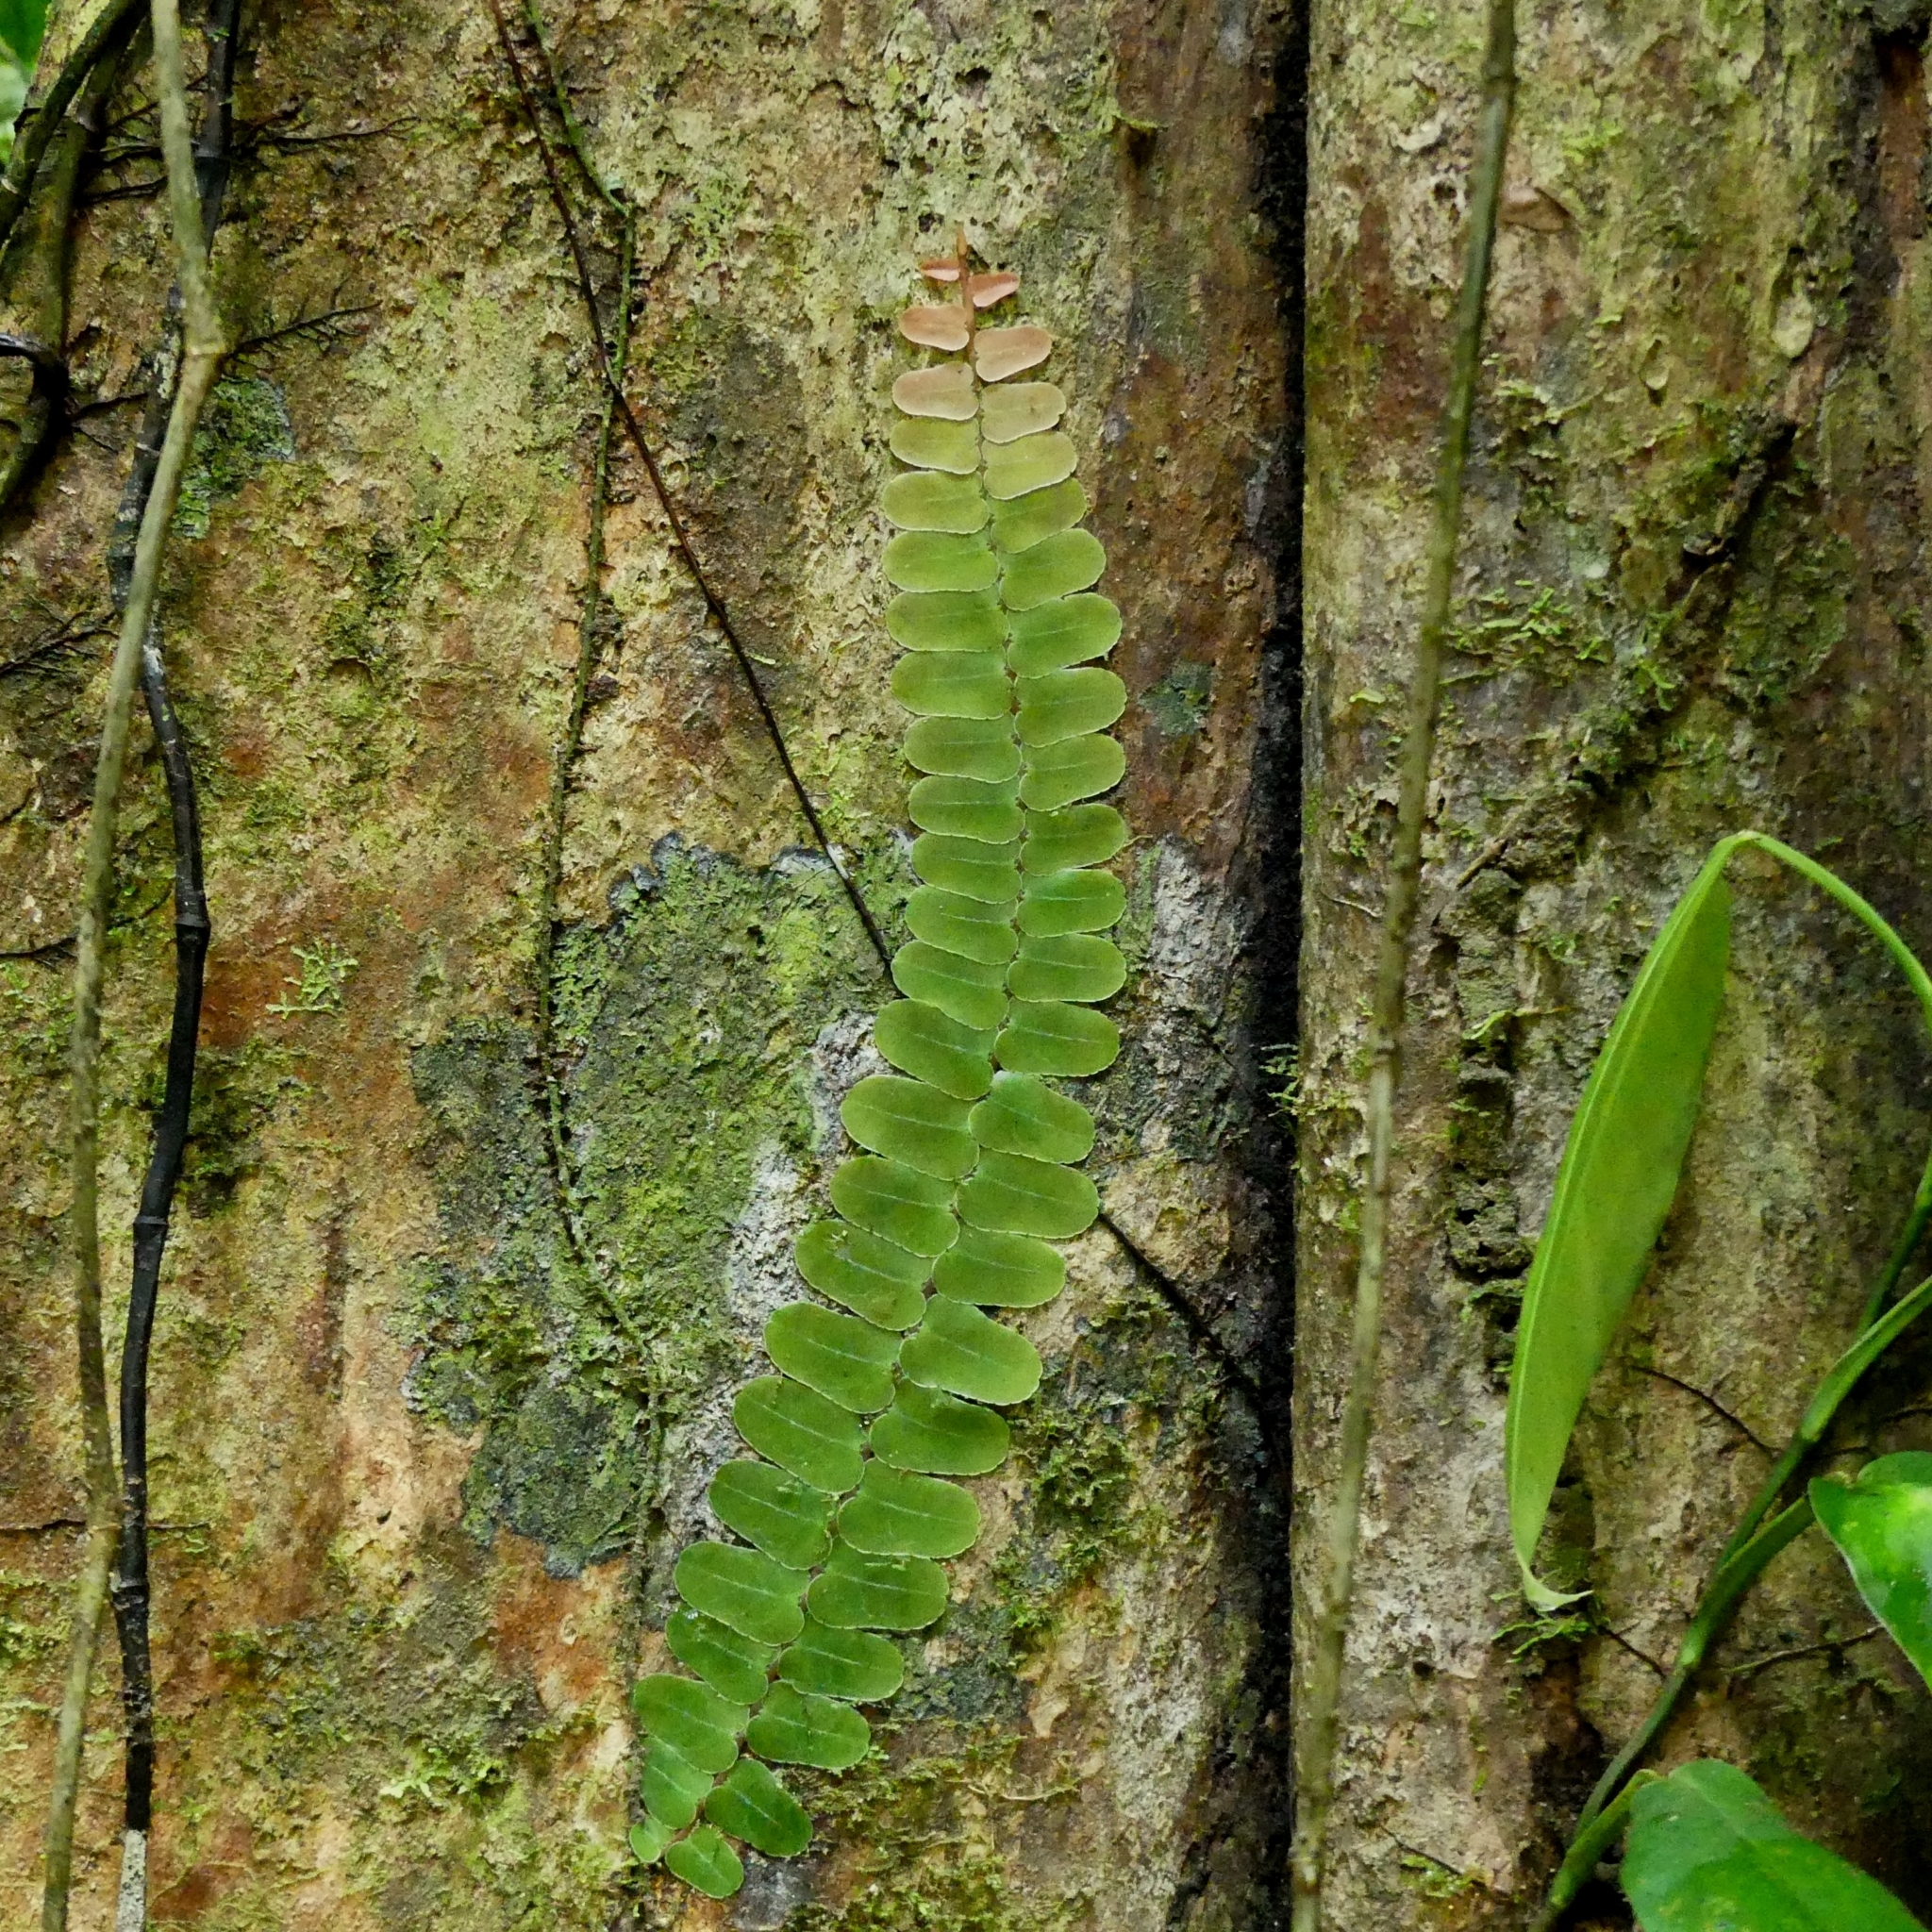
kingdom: Plantae
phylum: Tracheophyta
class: Magnoliopsida
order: Ericales
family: Marcgraviaceae
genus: Marcgravia
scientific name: Marcgravia
